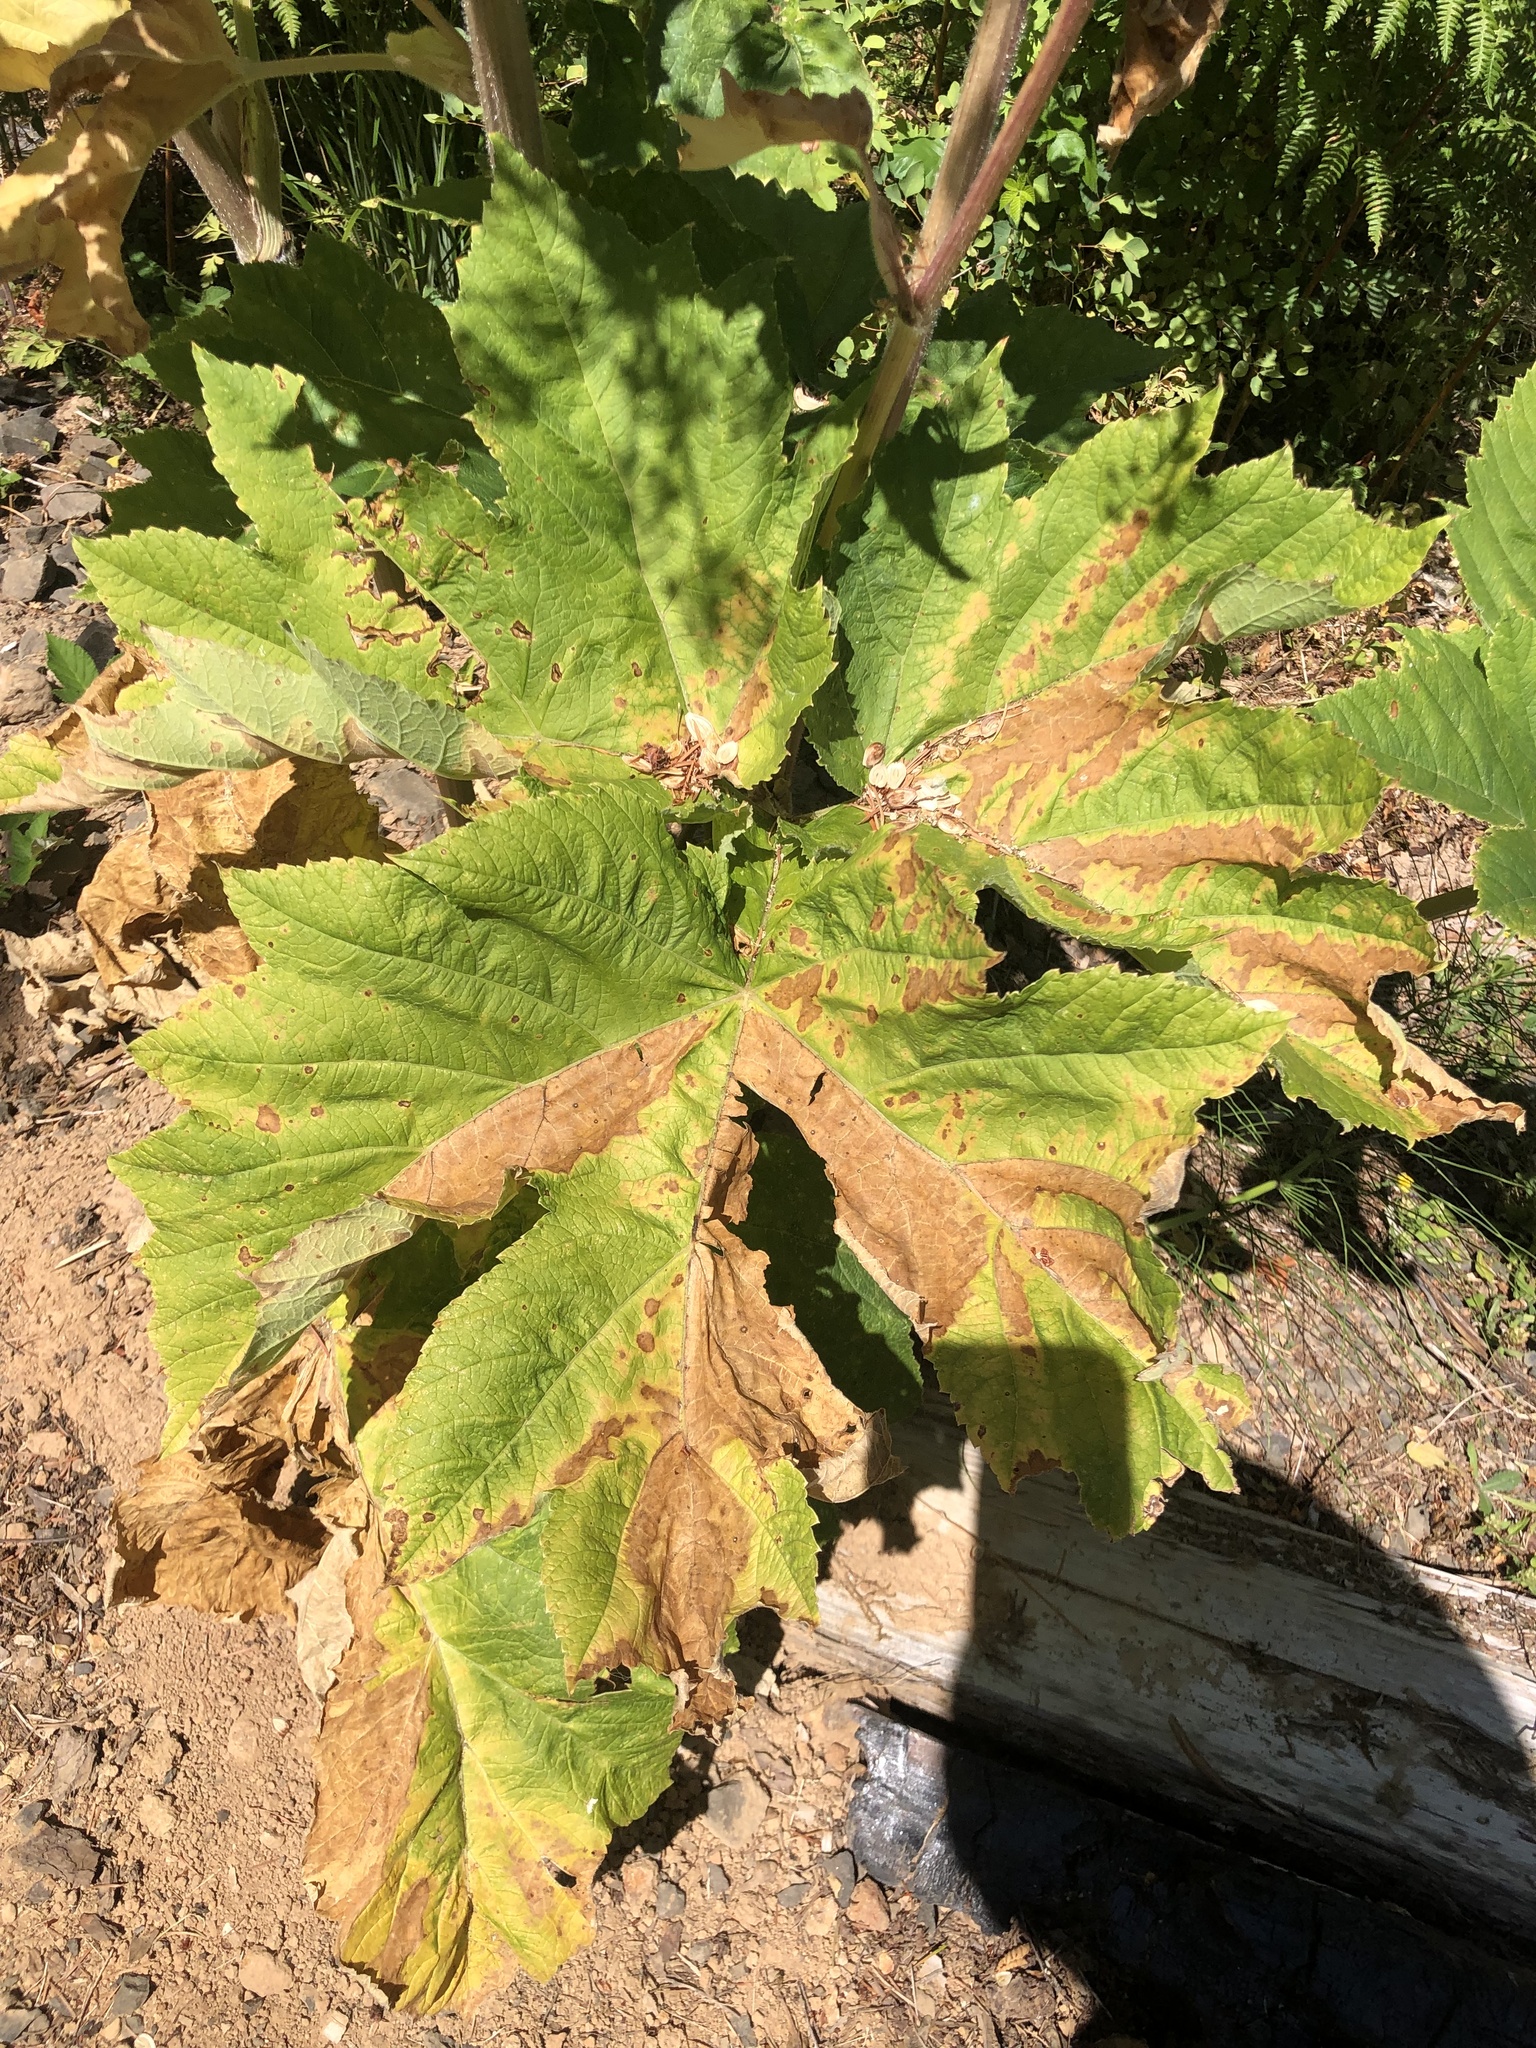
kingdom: Plantae
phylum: Tracheophyta
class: Magnoliopsida
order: Apiales
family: Apiaceae
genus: Heracleum
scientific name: Heracleum maximum
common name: American cow parsnip
